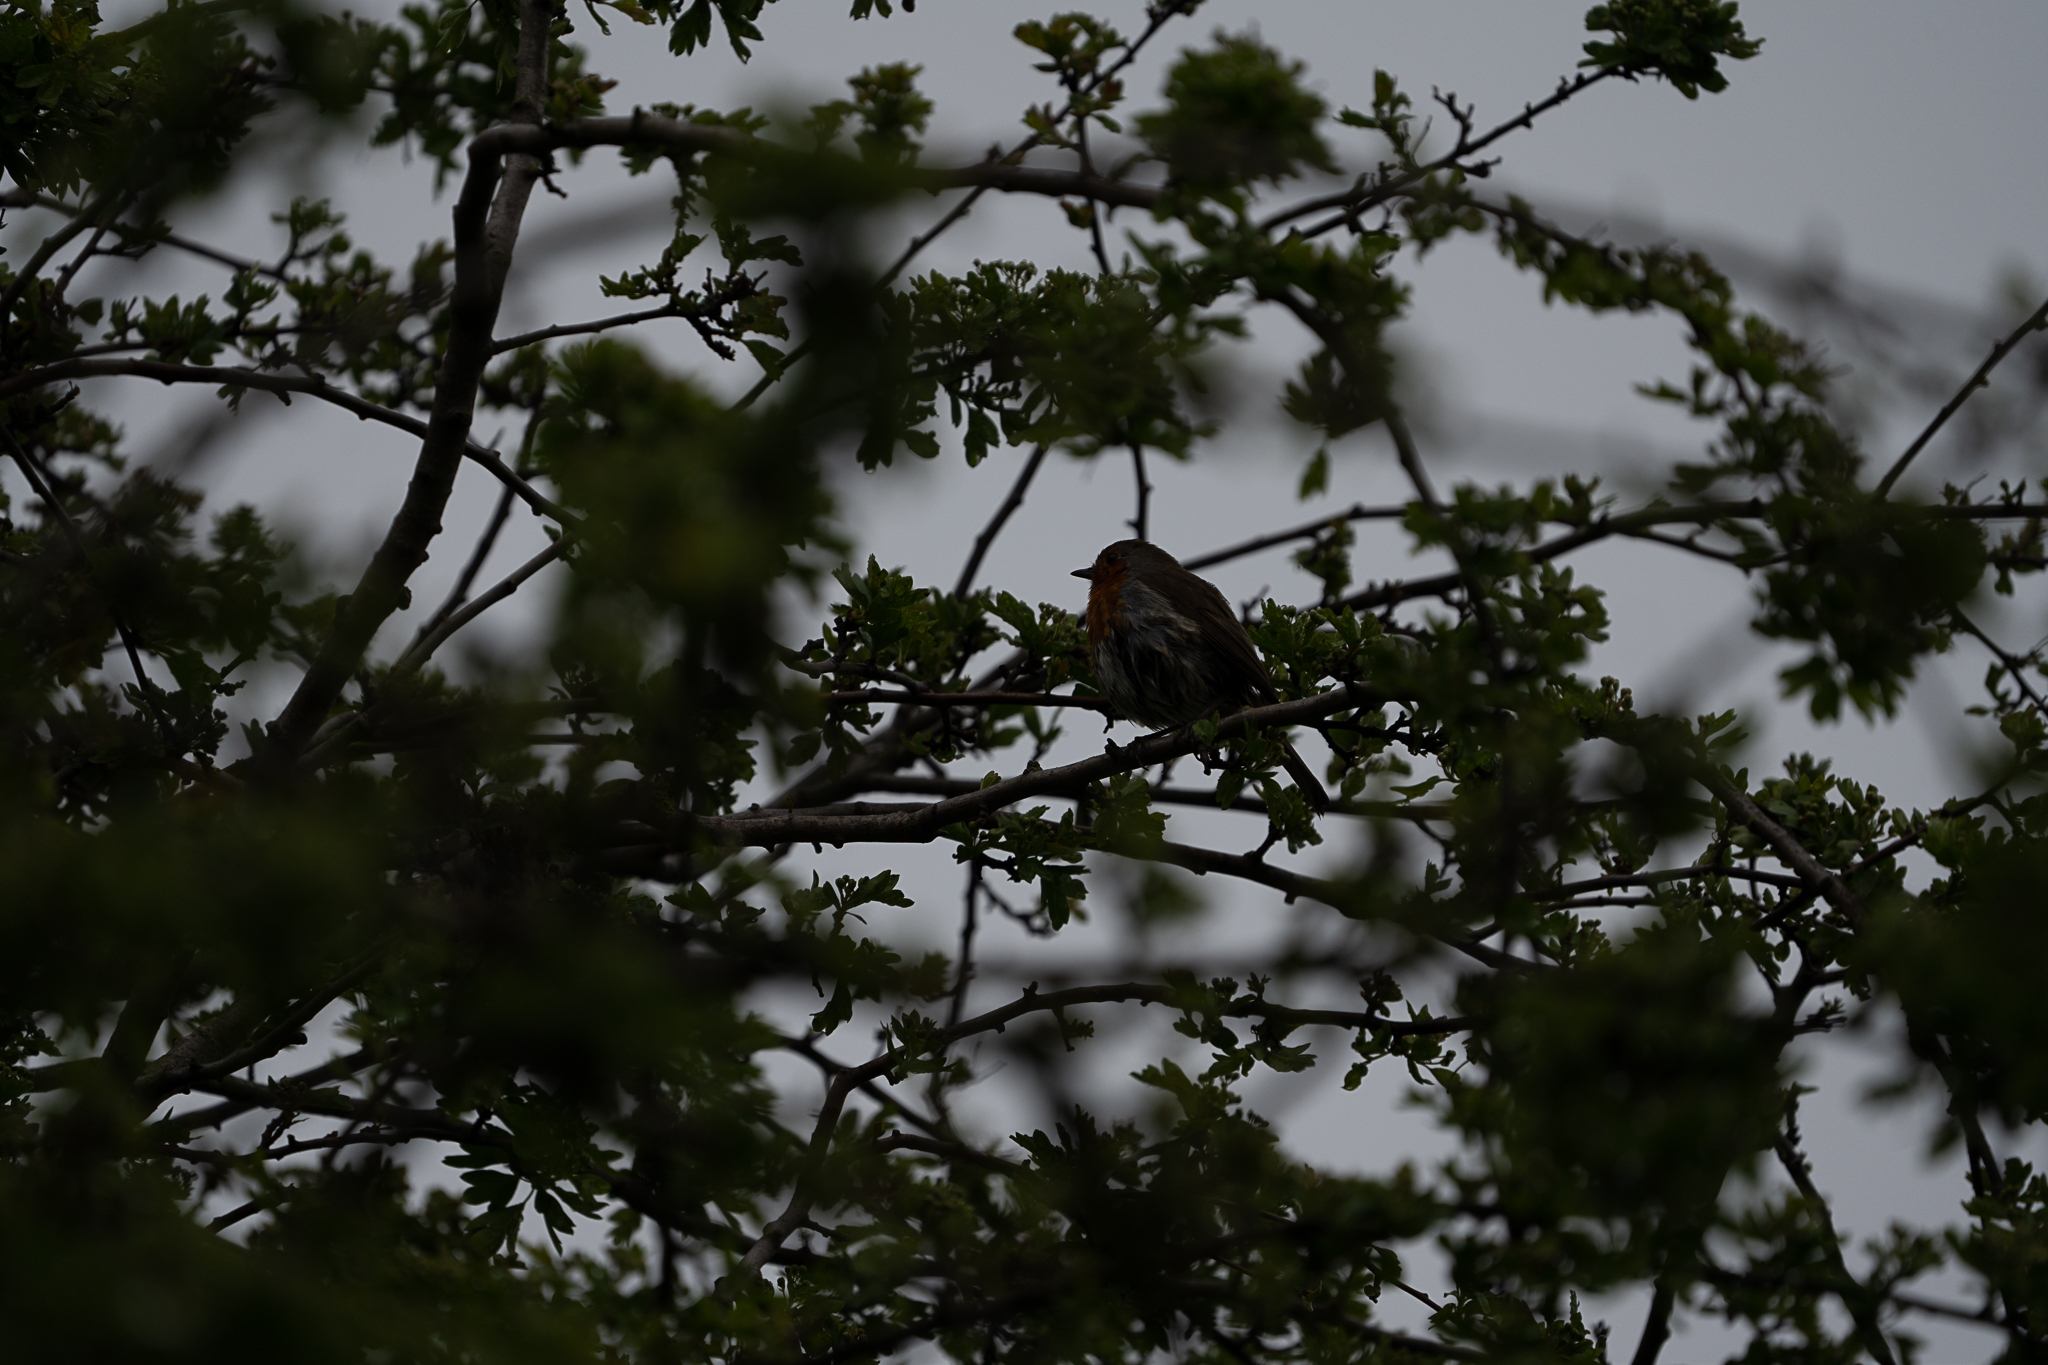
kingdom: Animalia
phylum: Chordata
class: Aves
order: Passeriformes
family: Muscicapidae
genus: Erithacus
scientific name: Erithacus rubecula
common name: European robin
